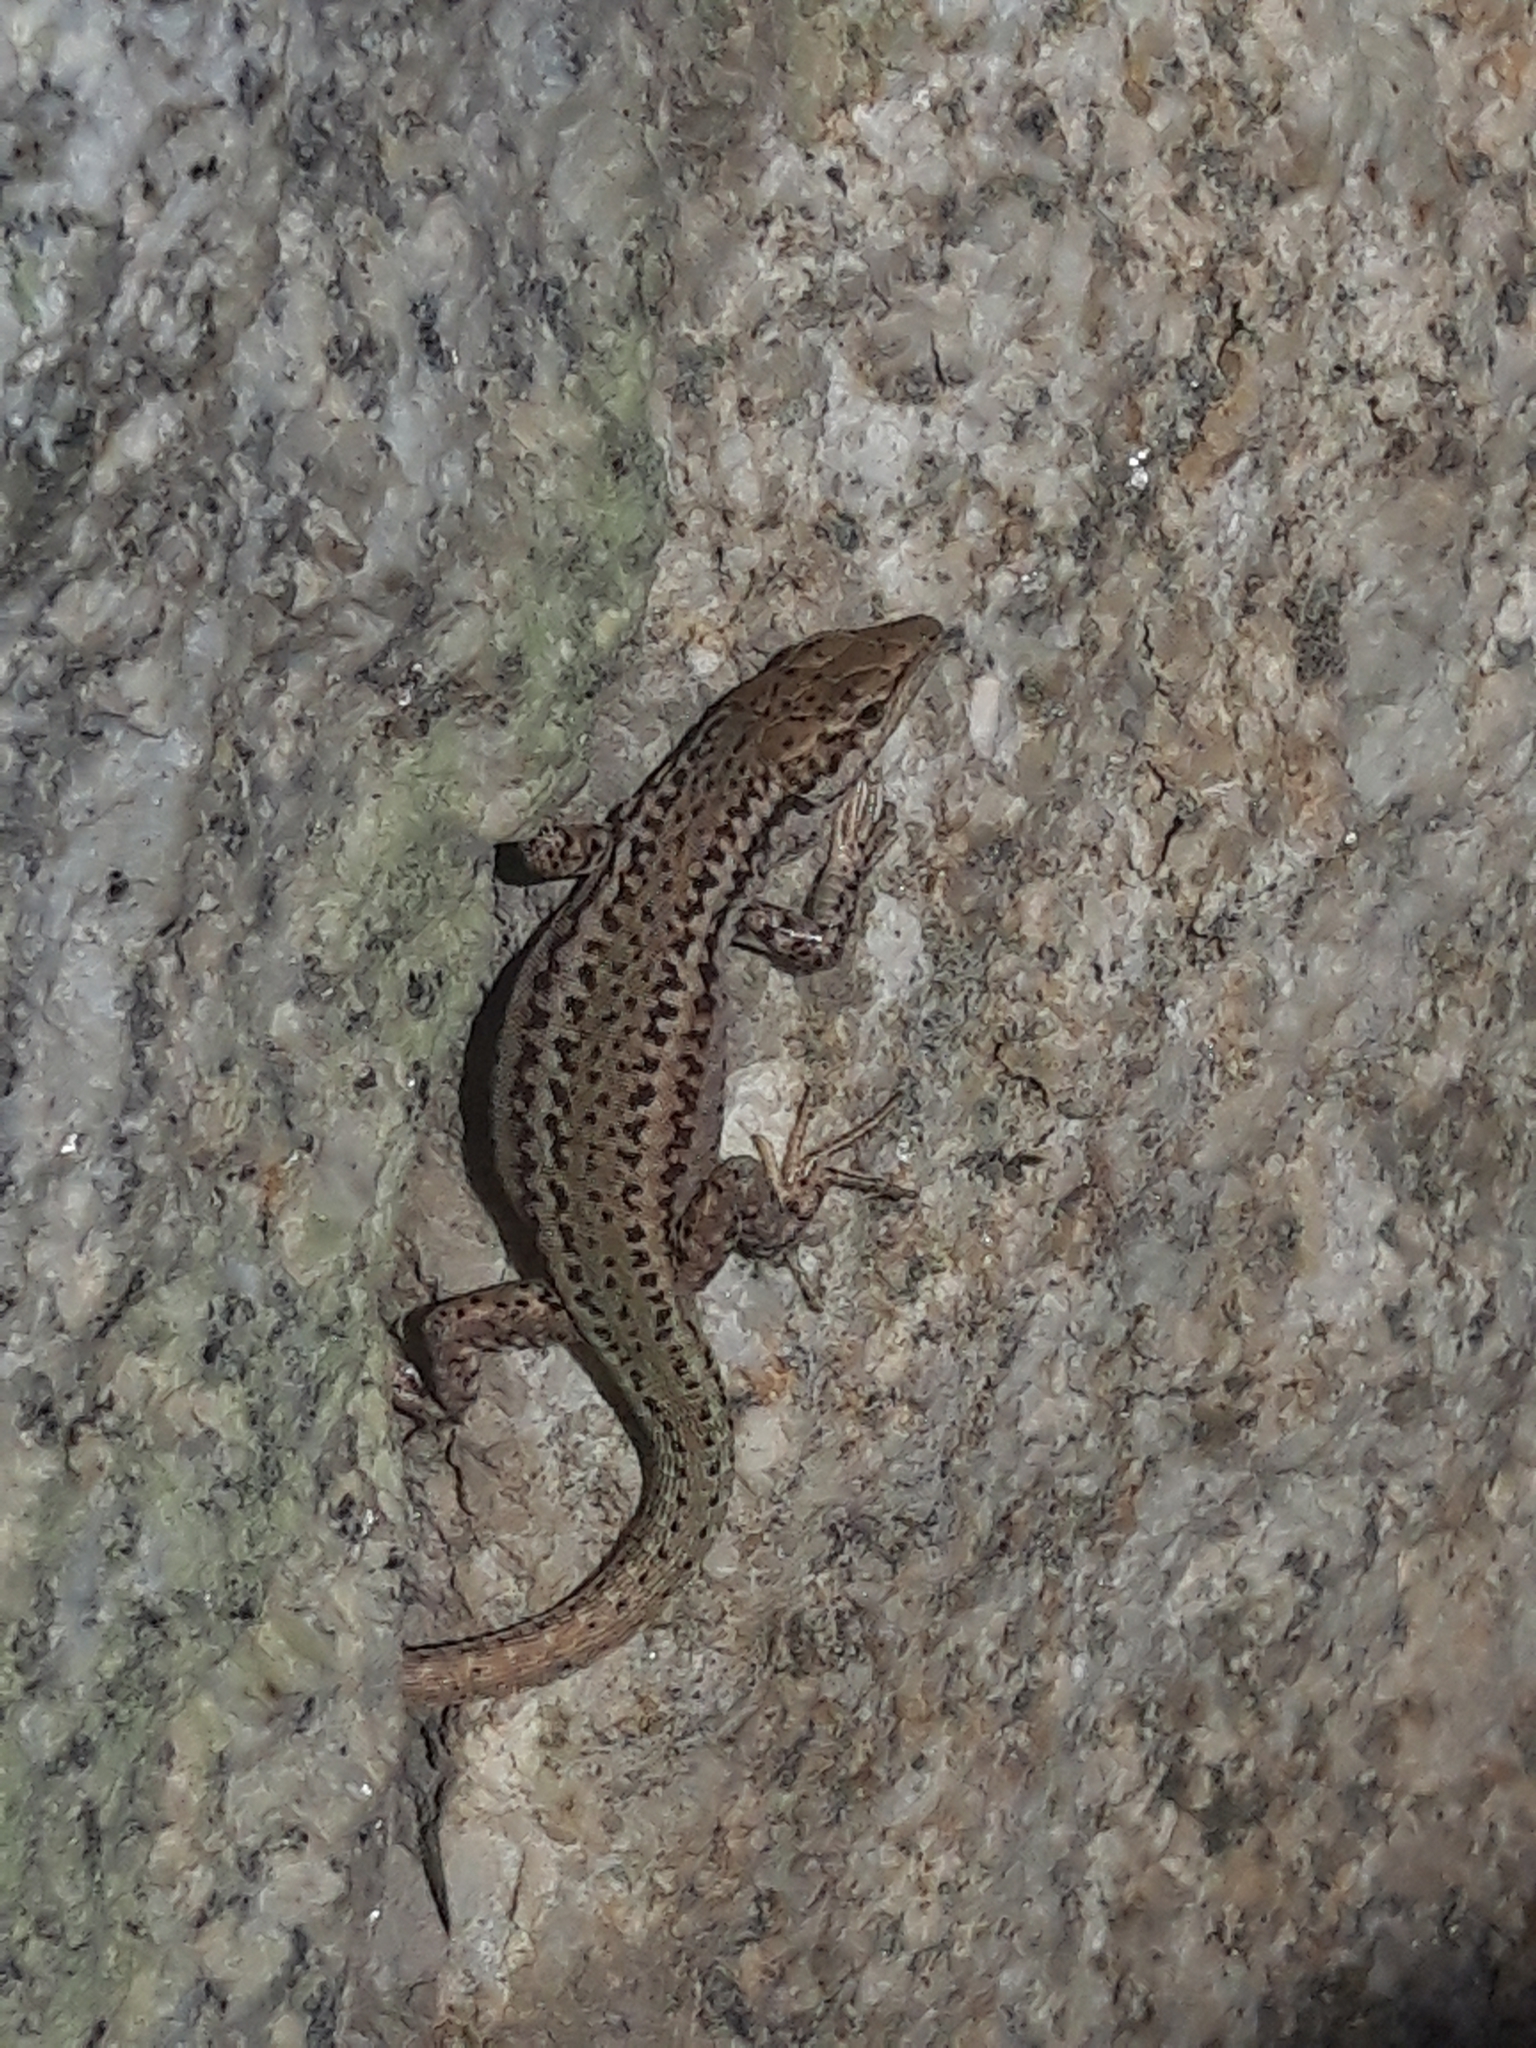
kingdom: Animalia
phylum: Chordata
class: Squamata
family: Lacertidae
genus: Podarcis
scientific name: Podarcis virescens
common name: Geniez’s wall lizard
